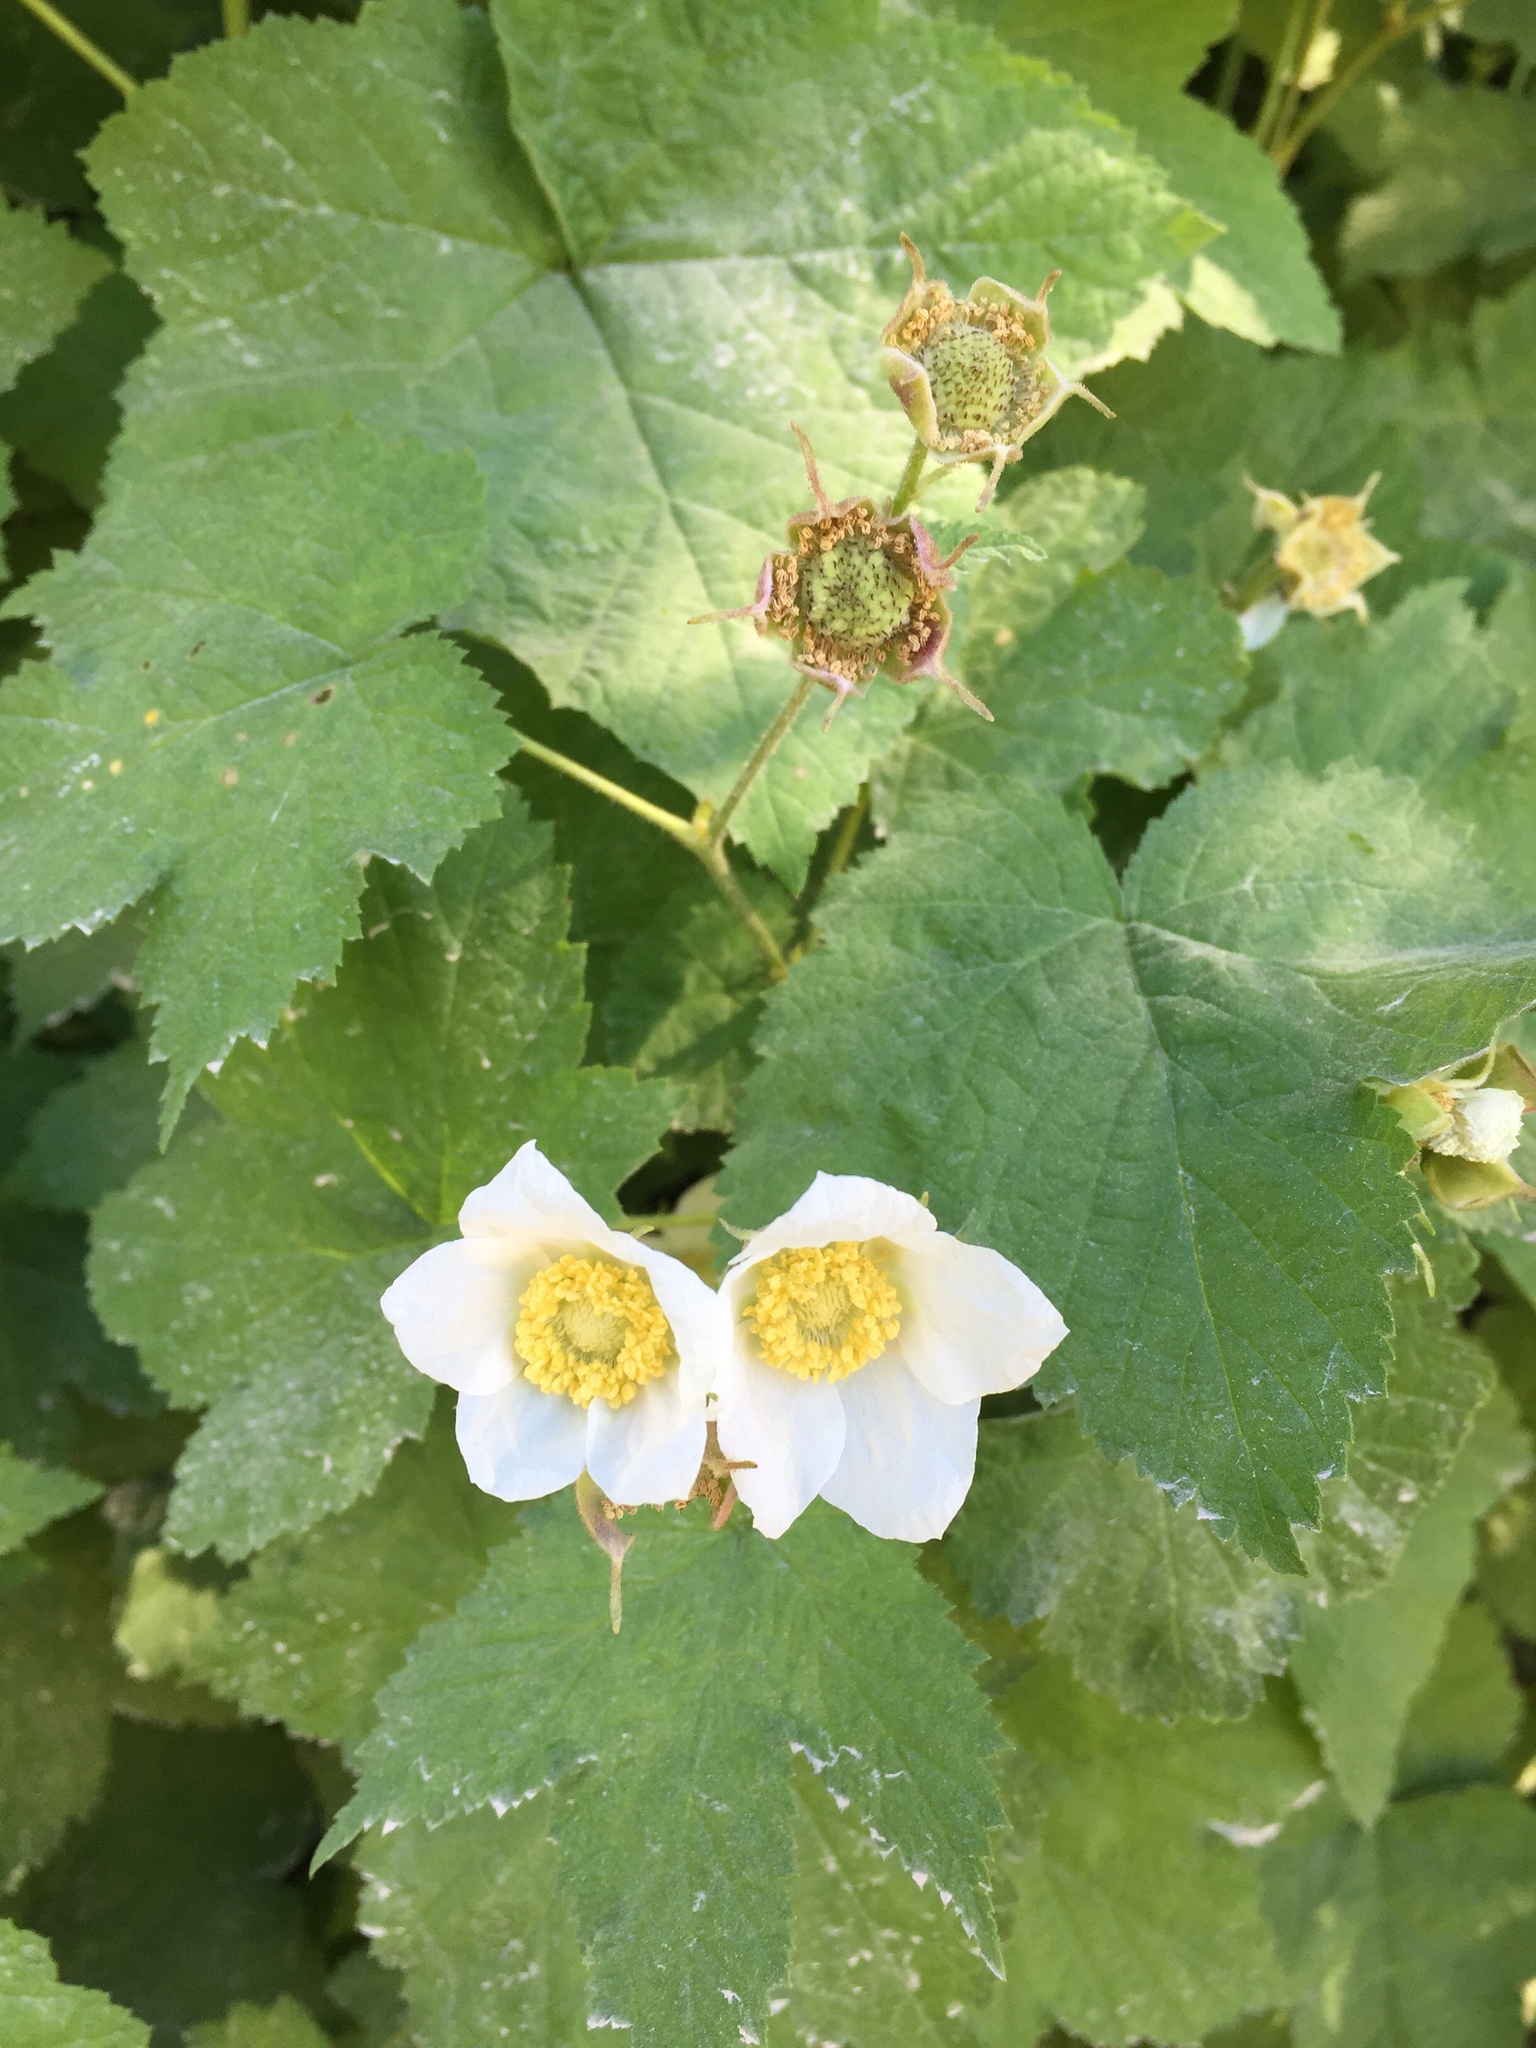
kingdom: Plantae
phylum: Tracheophyta
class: Magnoliopsida
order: Rosales
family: Rosaceae
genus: Rubus
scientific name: Rubus parviflorus
